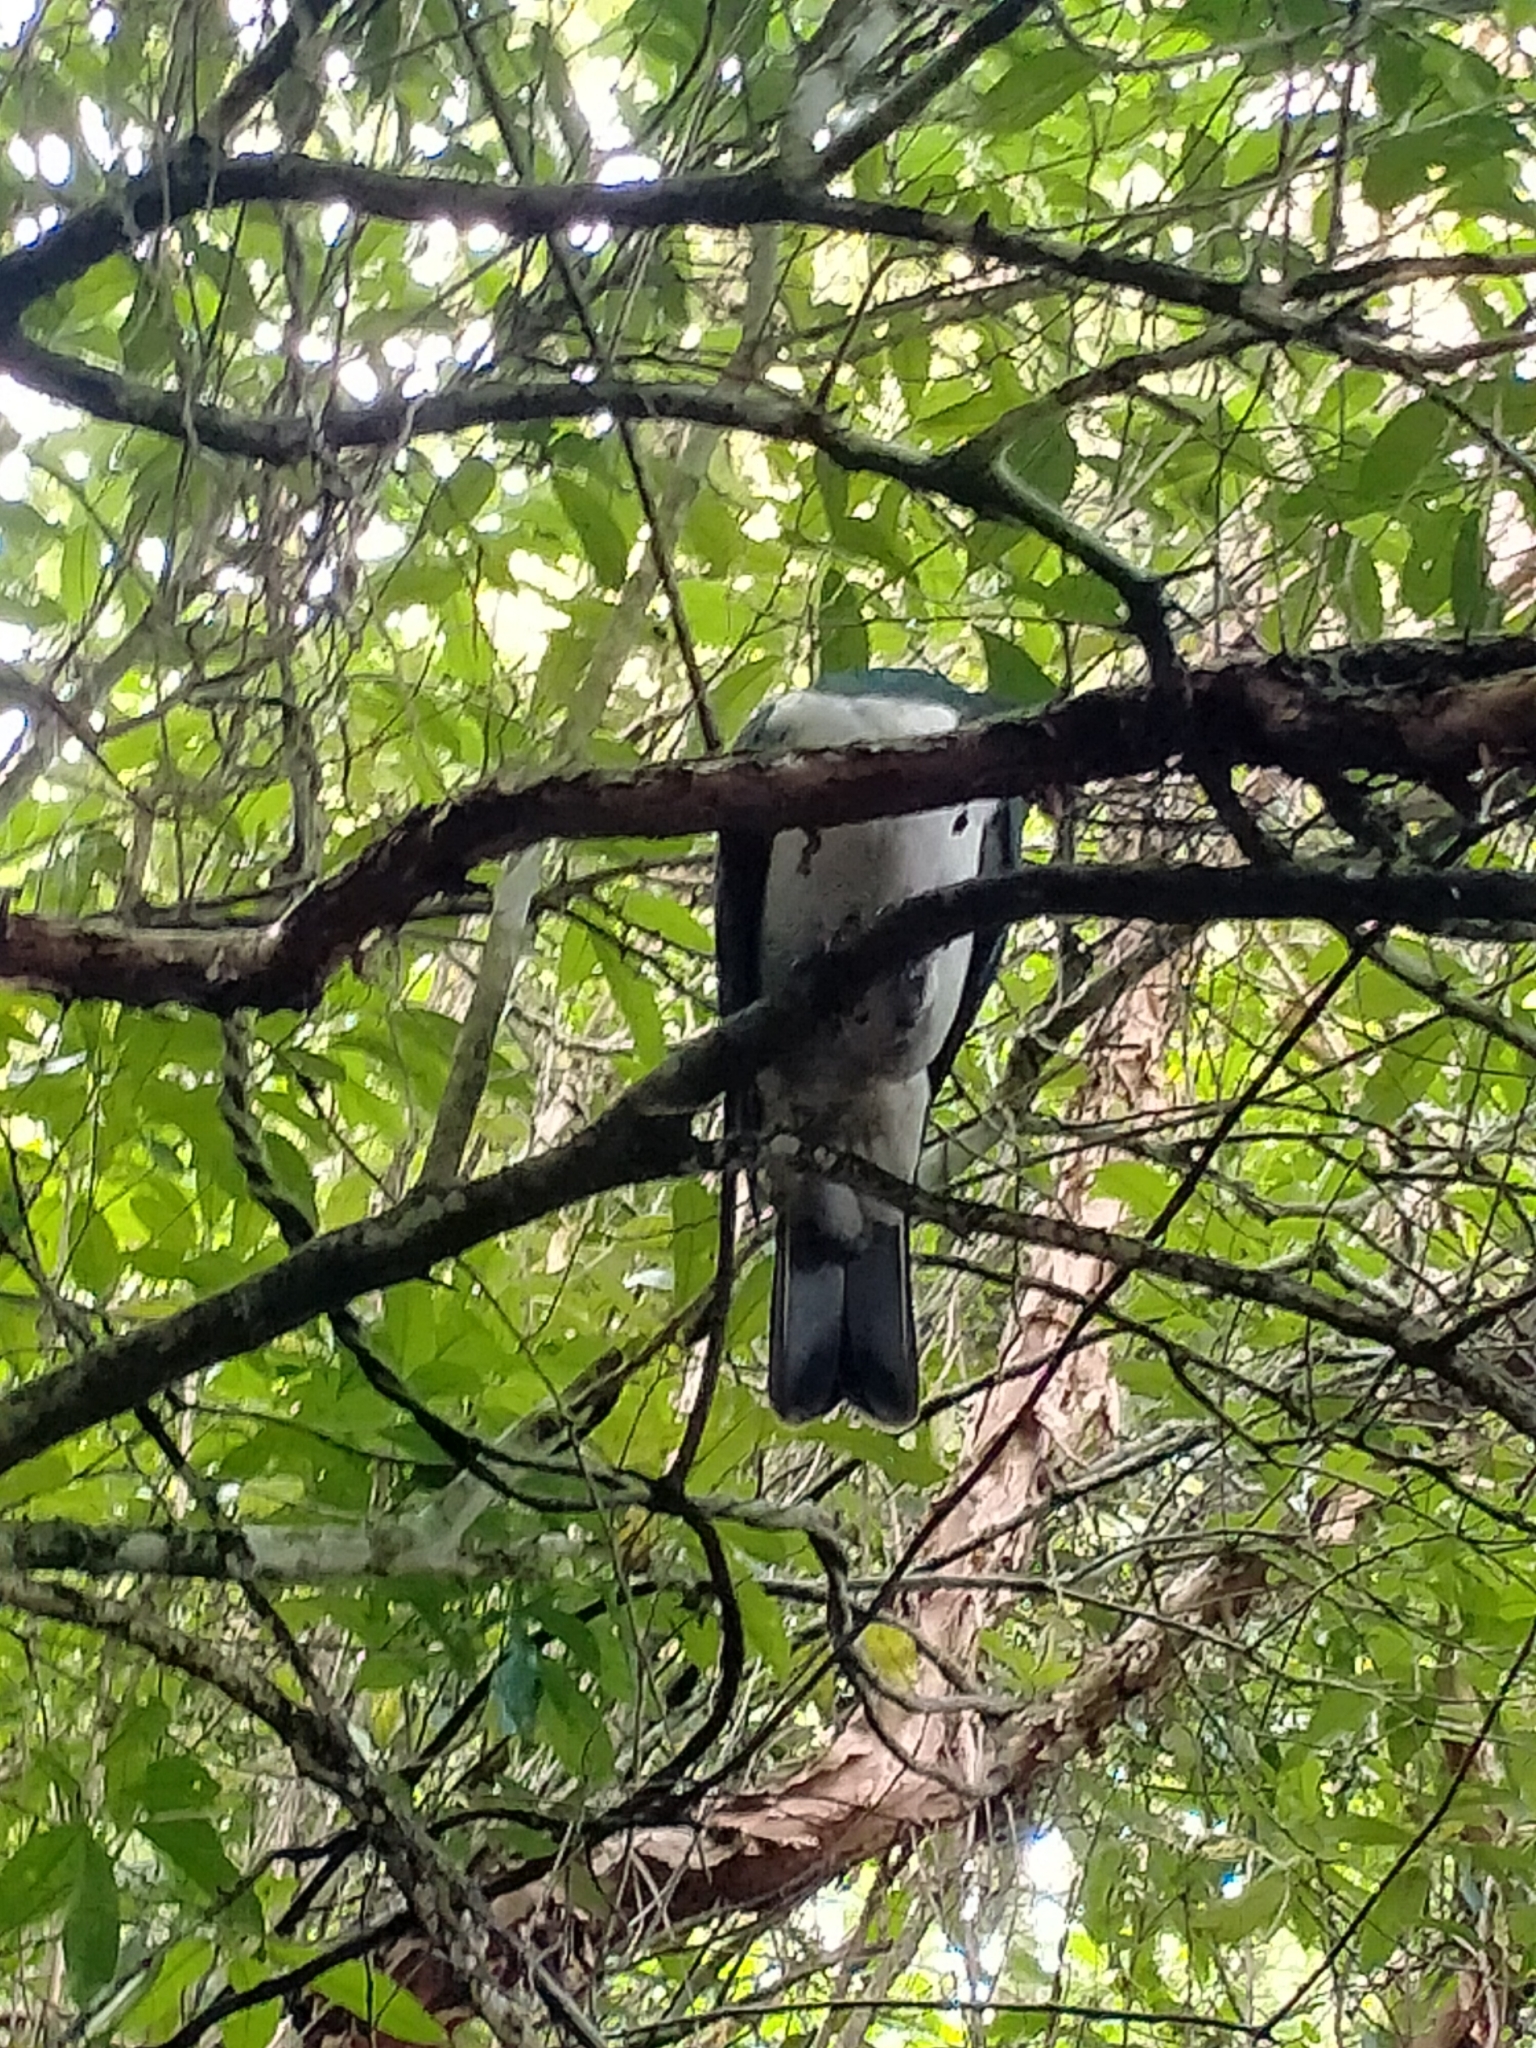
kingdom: Animalia
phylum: Chordata
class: Aves
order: Columbiformes
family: Columbidae
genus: Hemiphaga
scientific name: Hemiphaga novaeseelandiae
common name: New zealand pigeon
